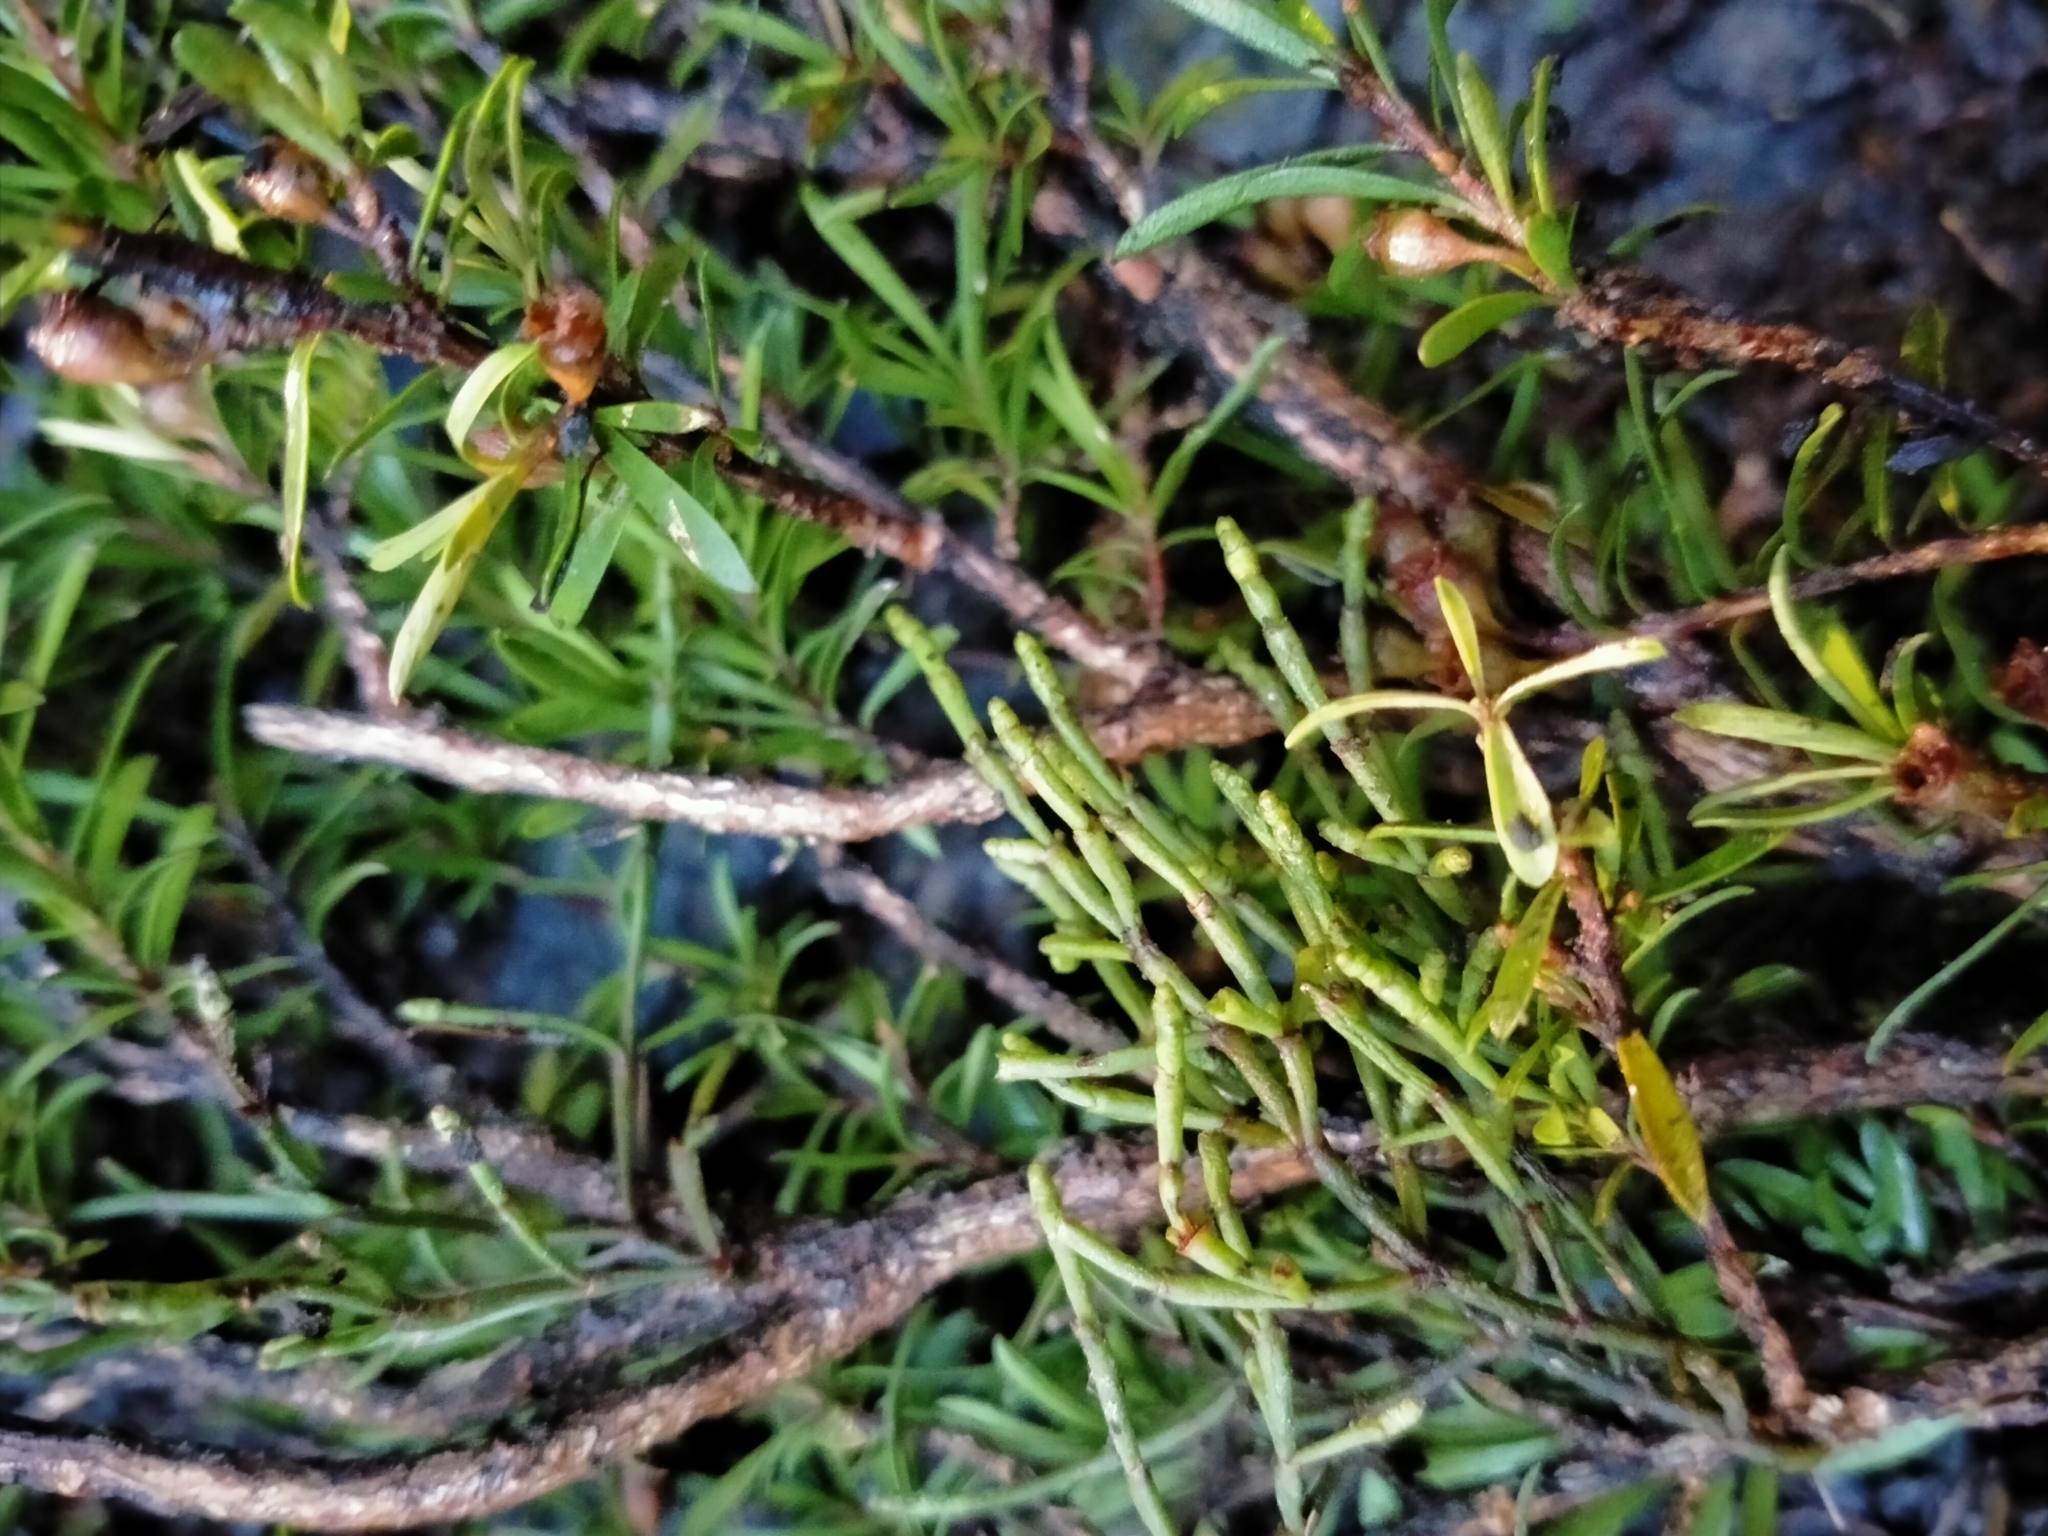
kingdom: Plantae
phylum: Tracheophyta
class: Magnoliopsida
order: Santalales
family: Viscaceae
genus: Korthalsella
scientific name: Korthalsella salicornioides
